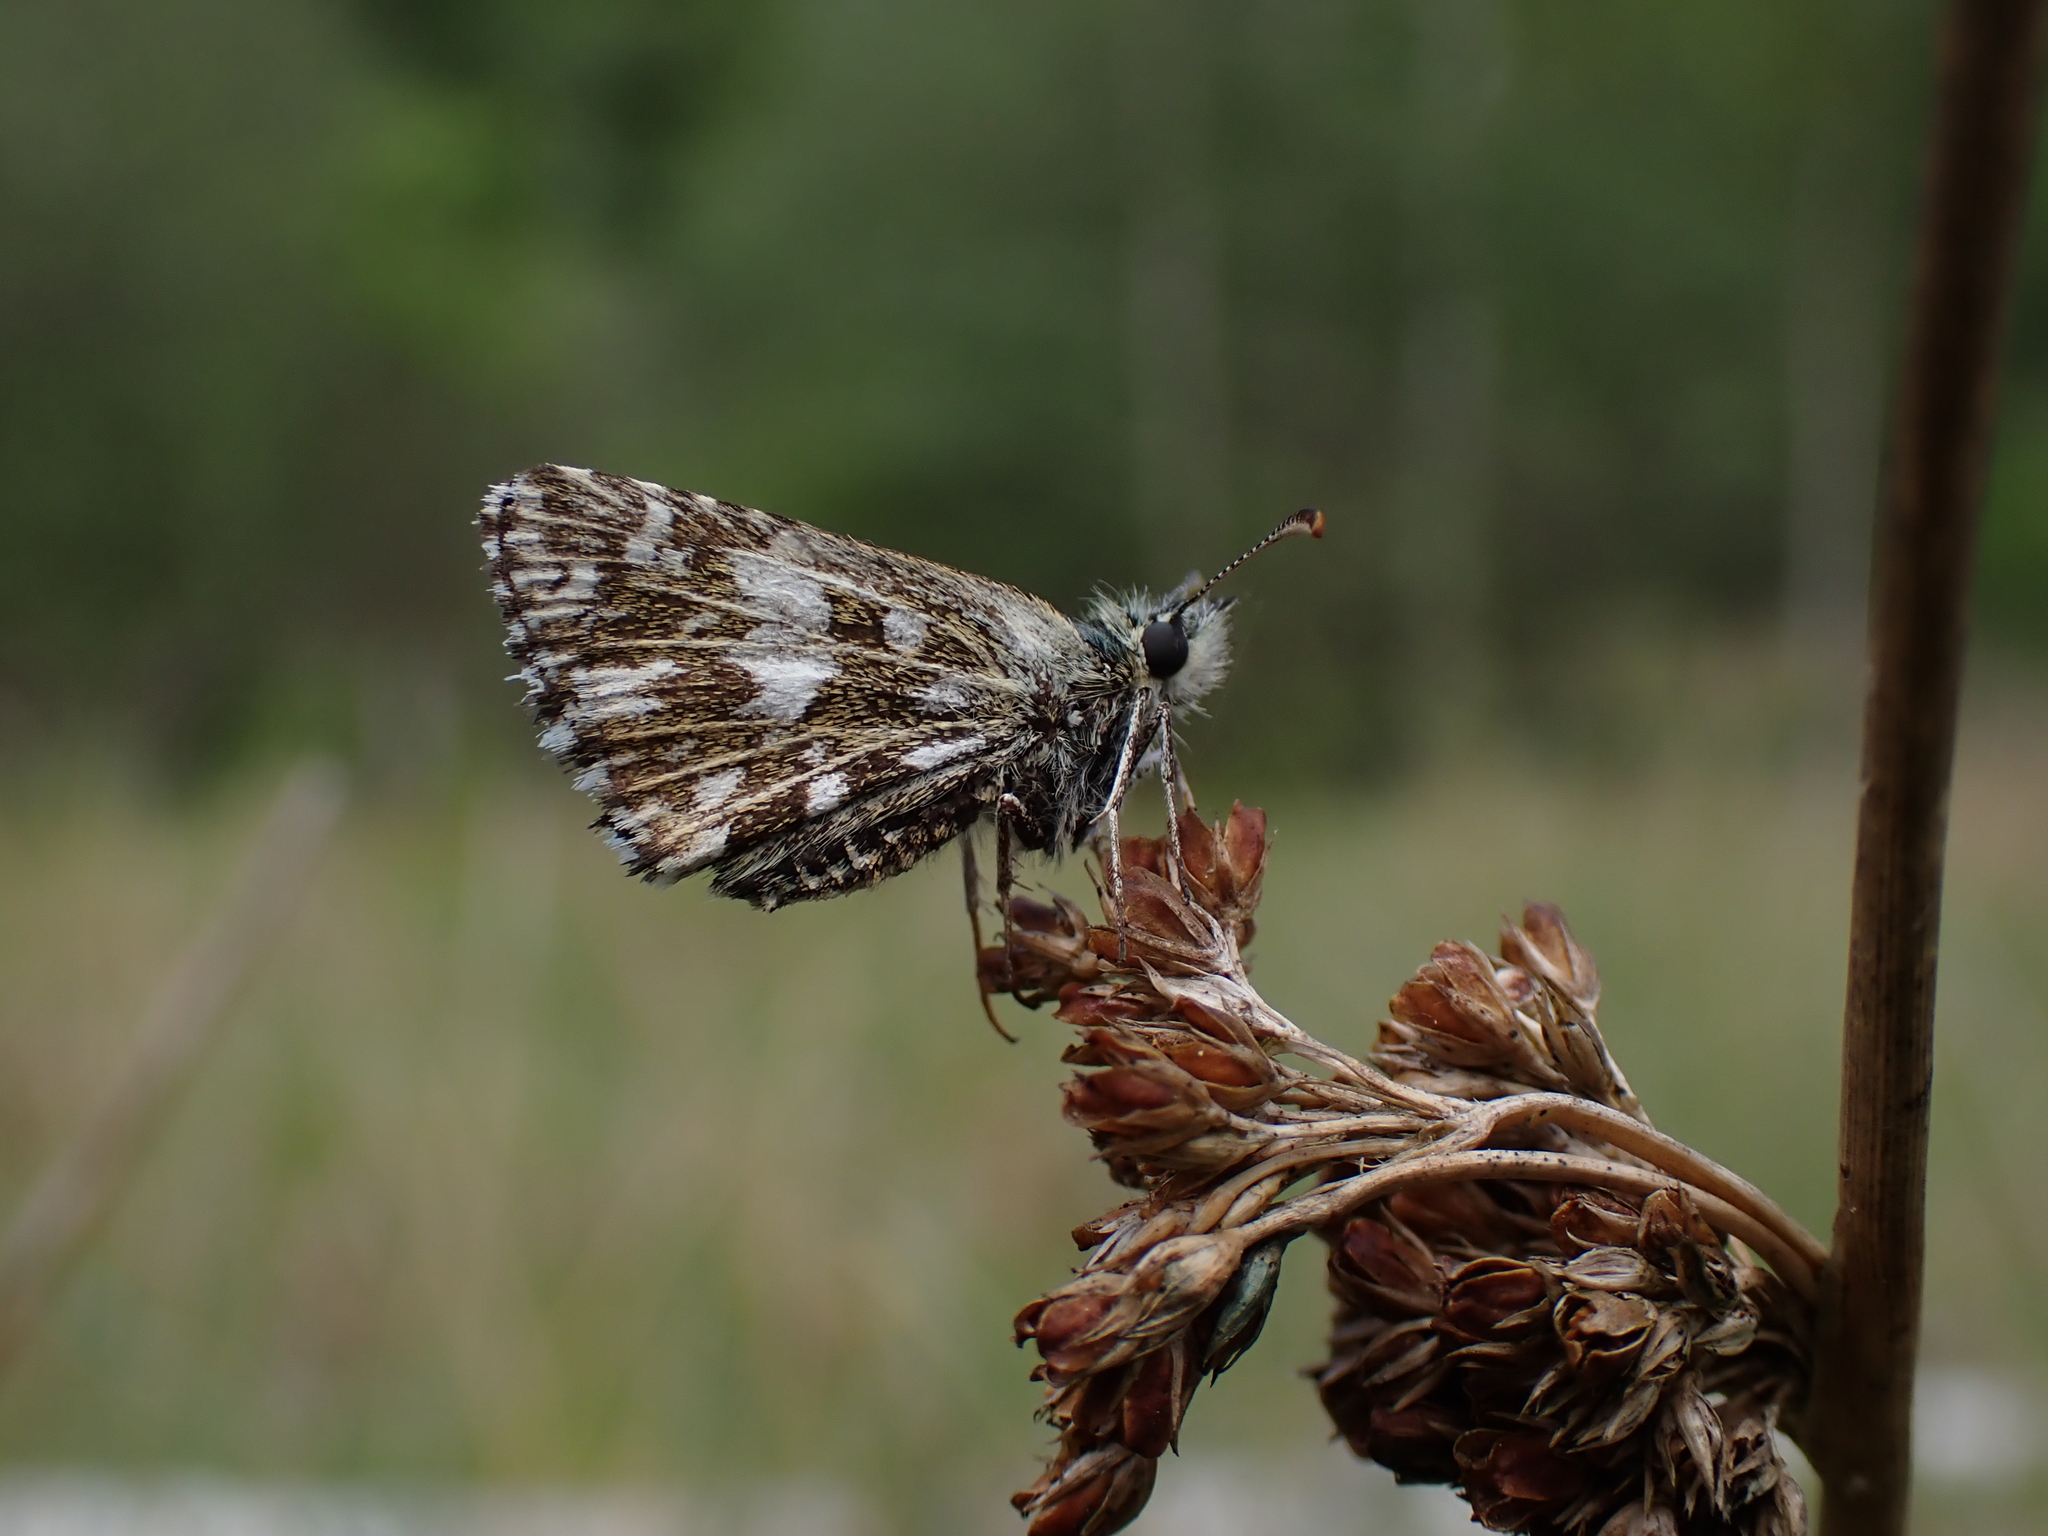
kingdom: Animalia
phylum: Arthropoda
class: Insecta
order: Lepidoptera
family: Hesperiidae
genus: Pyrgus
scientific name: Pyrgus malvae
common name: Grizzled skipper
